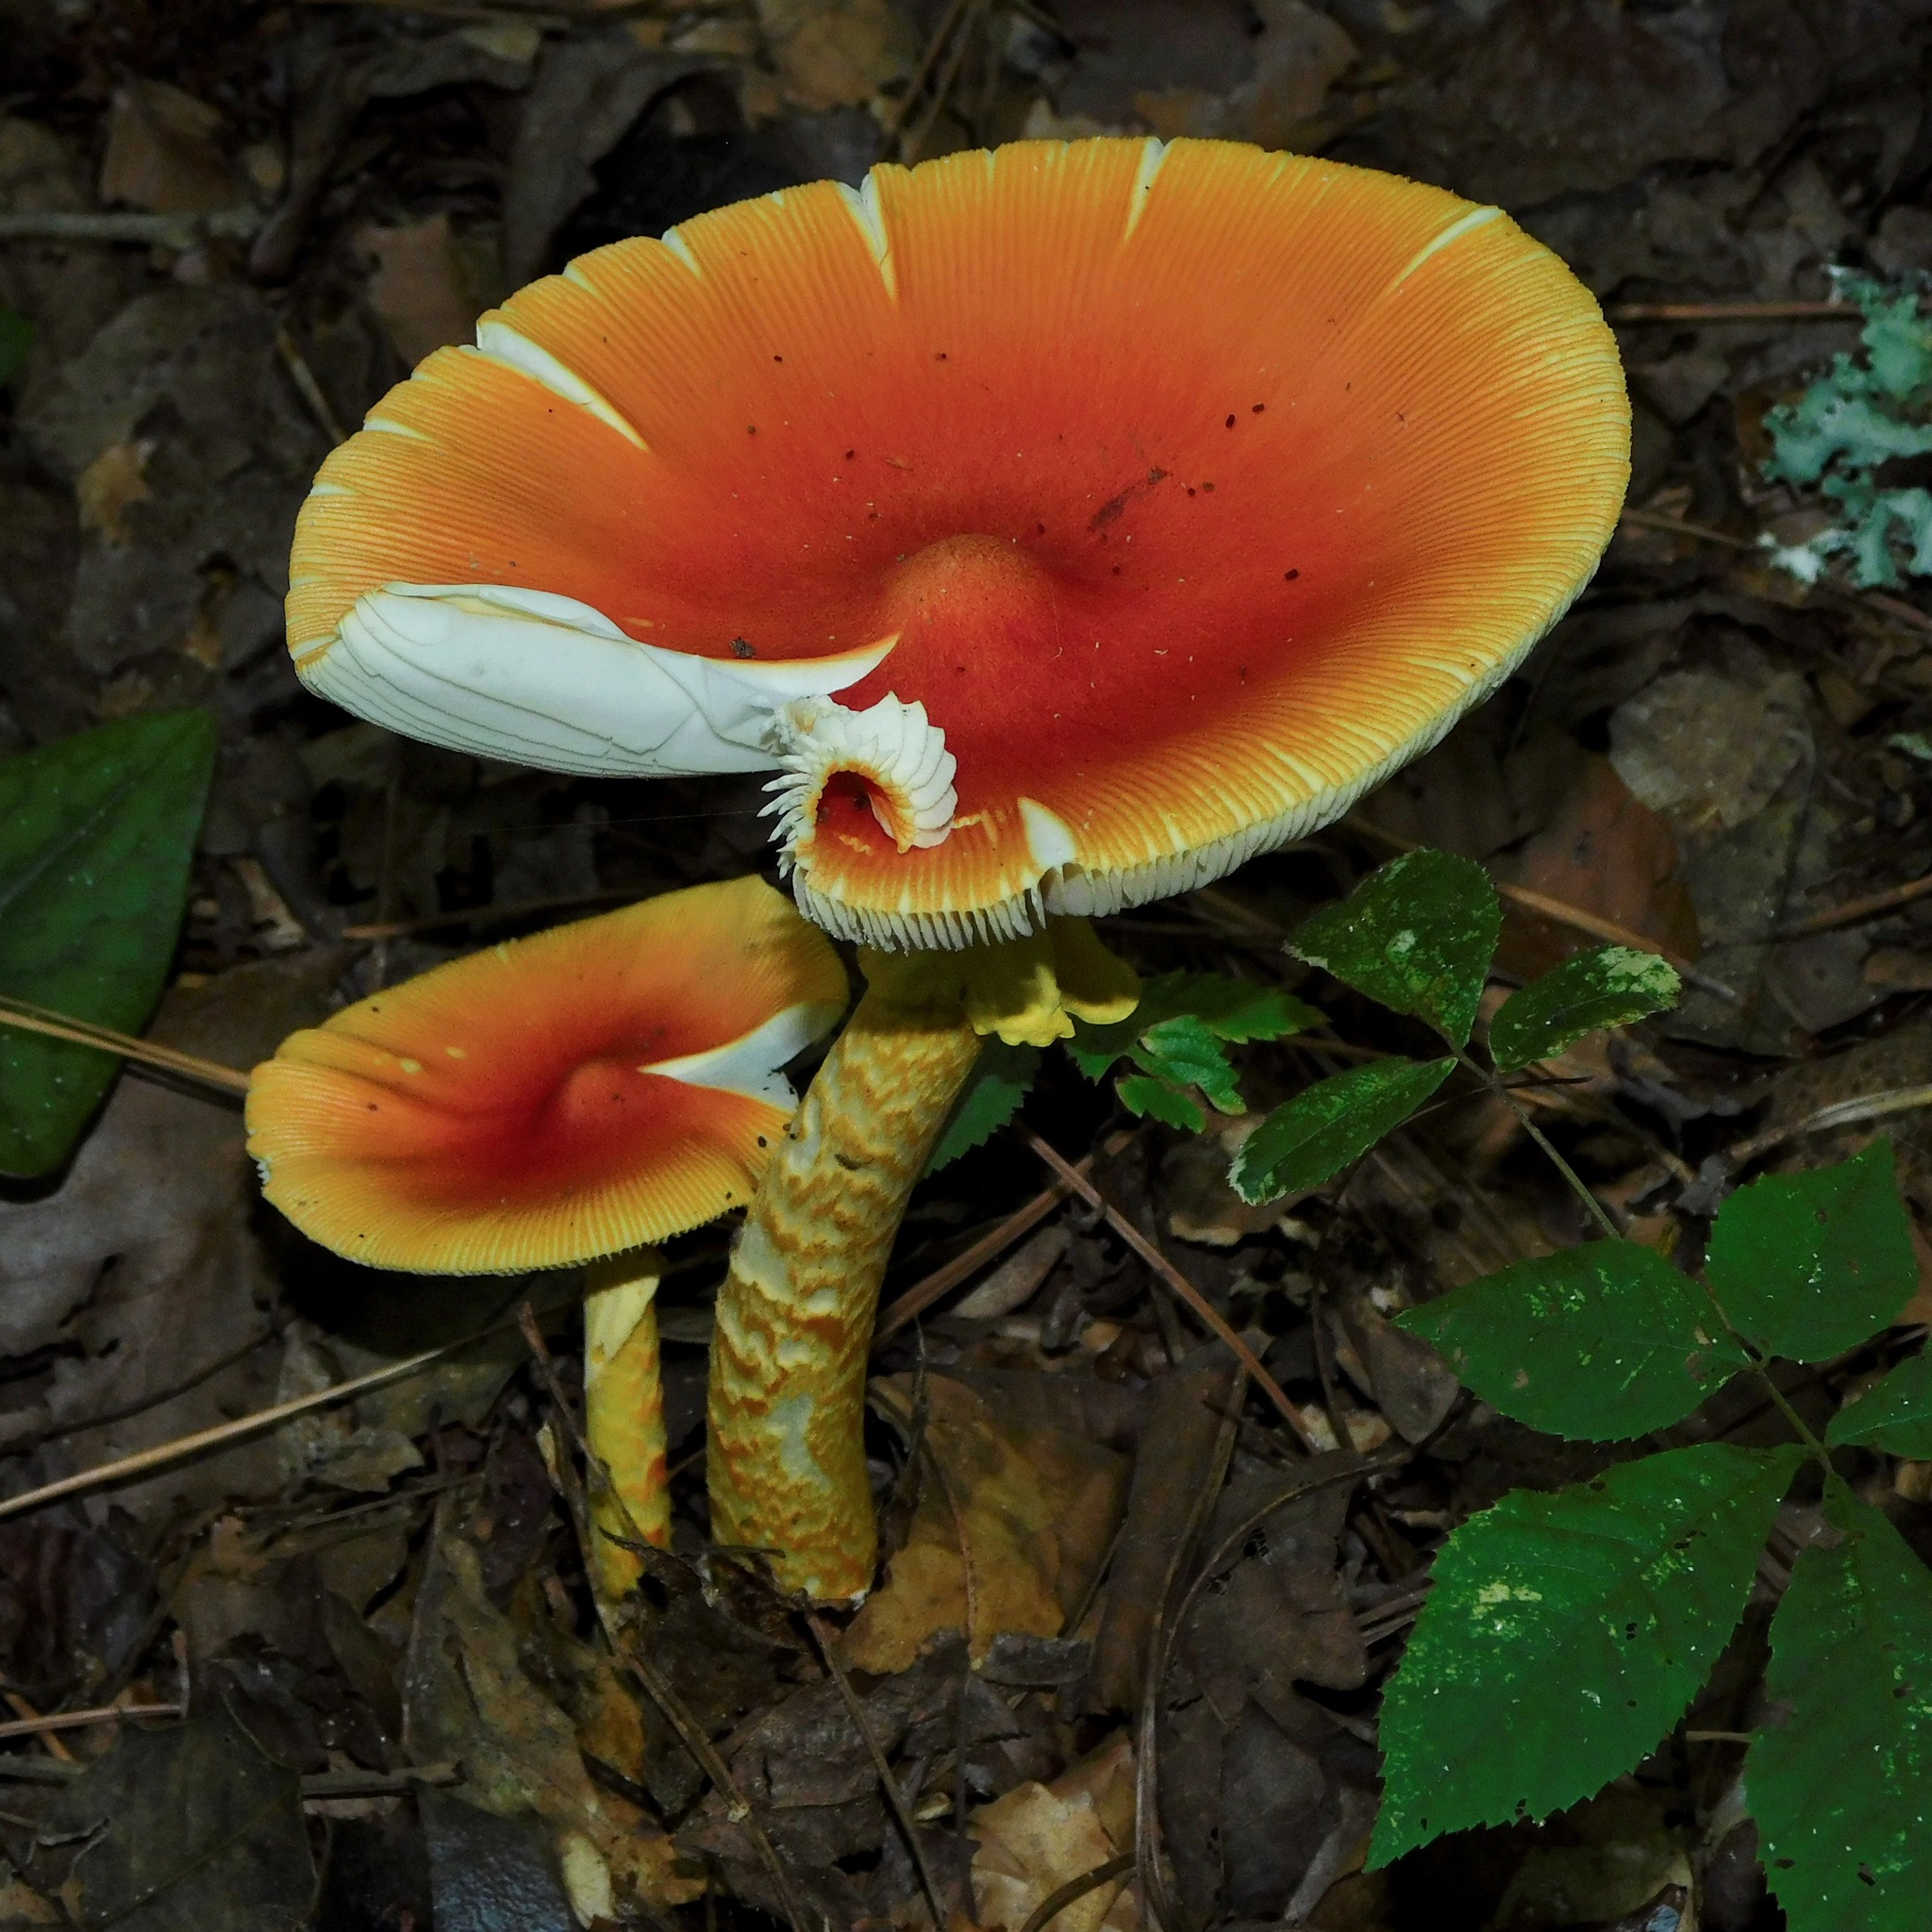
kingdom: Fungi
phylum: Basidiomycota
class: Agaricomycetes
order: Agaricales
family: Amanitaceae
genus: Amanita
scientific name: Amanita jacksonii
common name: Jackson's slender caesar
